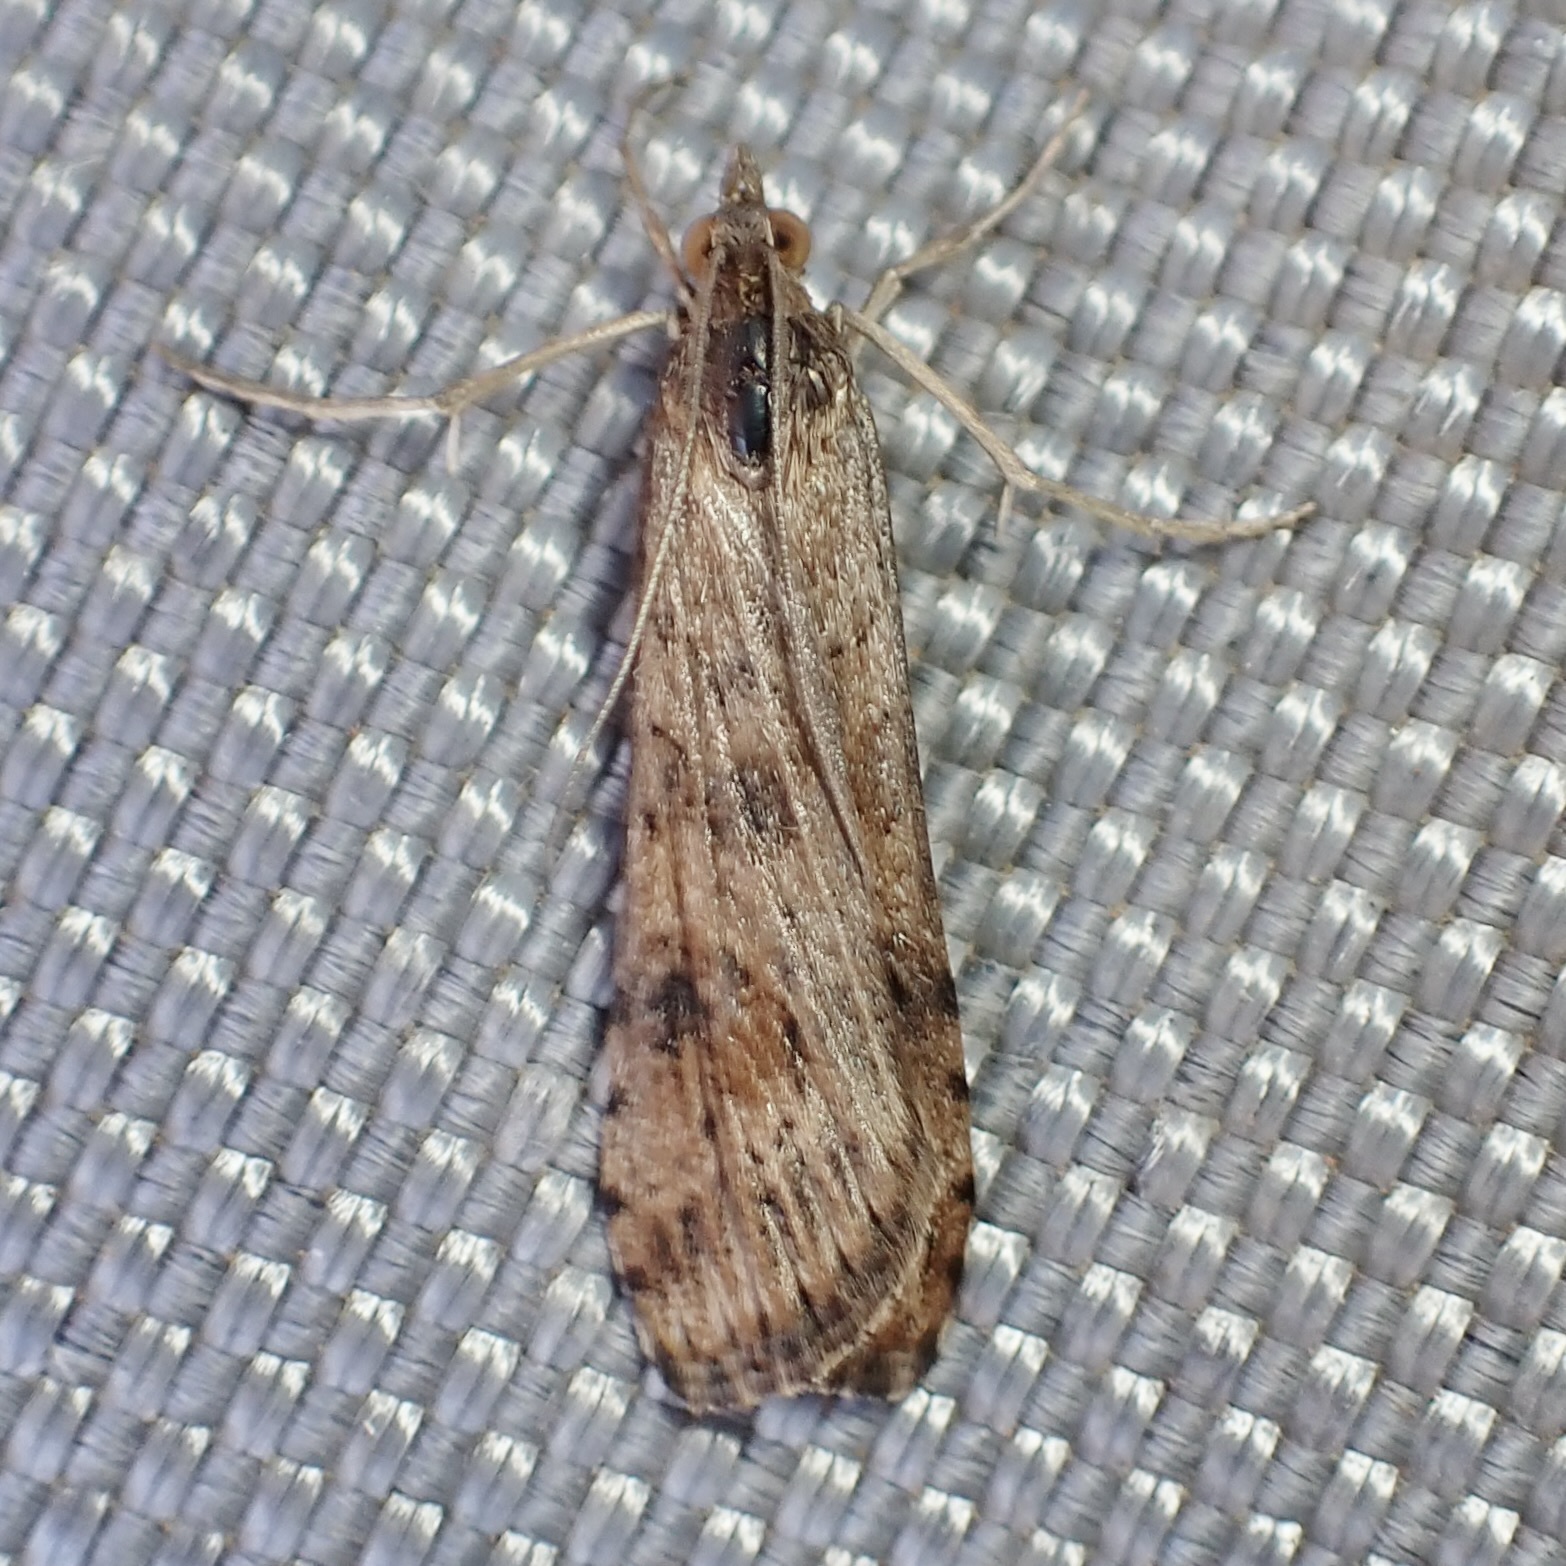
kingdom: Animalia
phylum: Arthropoda
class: Insecta
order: Lepidoptera
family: Crambidae
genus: Nomophila
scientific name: Nomophila nearctica
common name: American rush veneer
